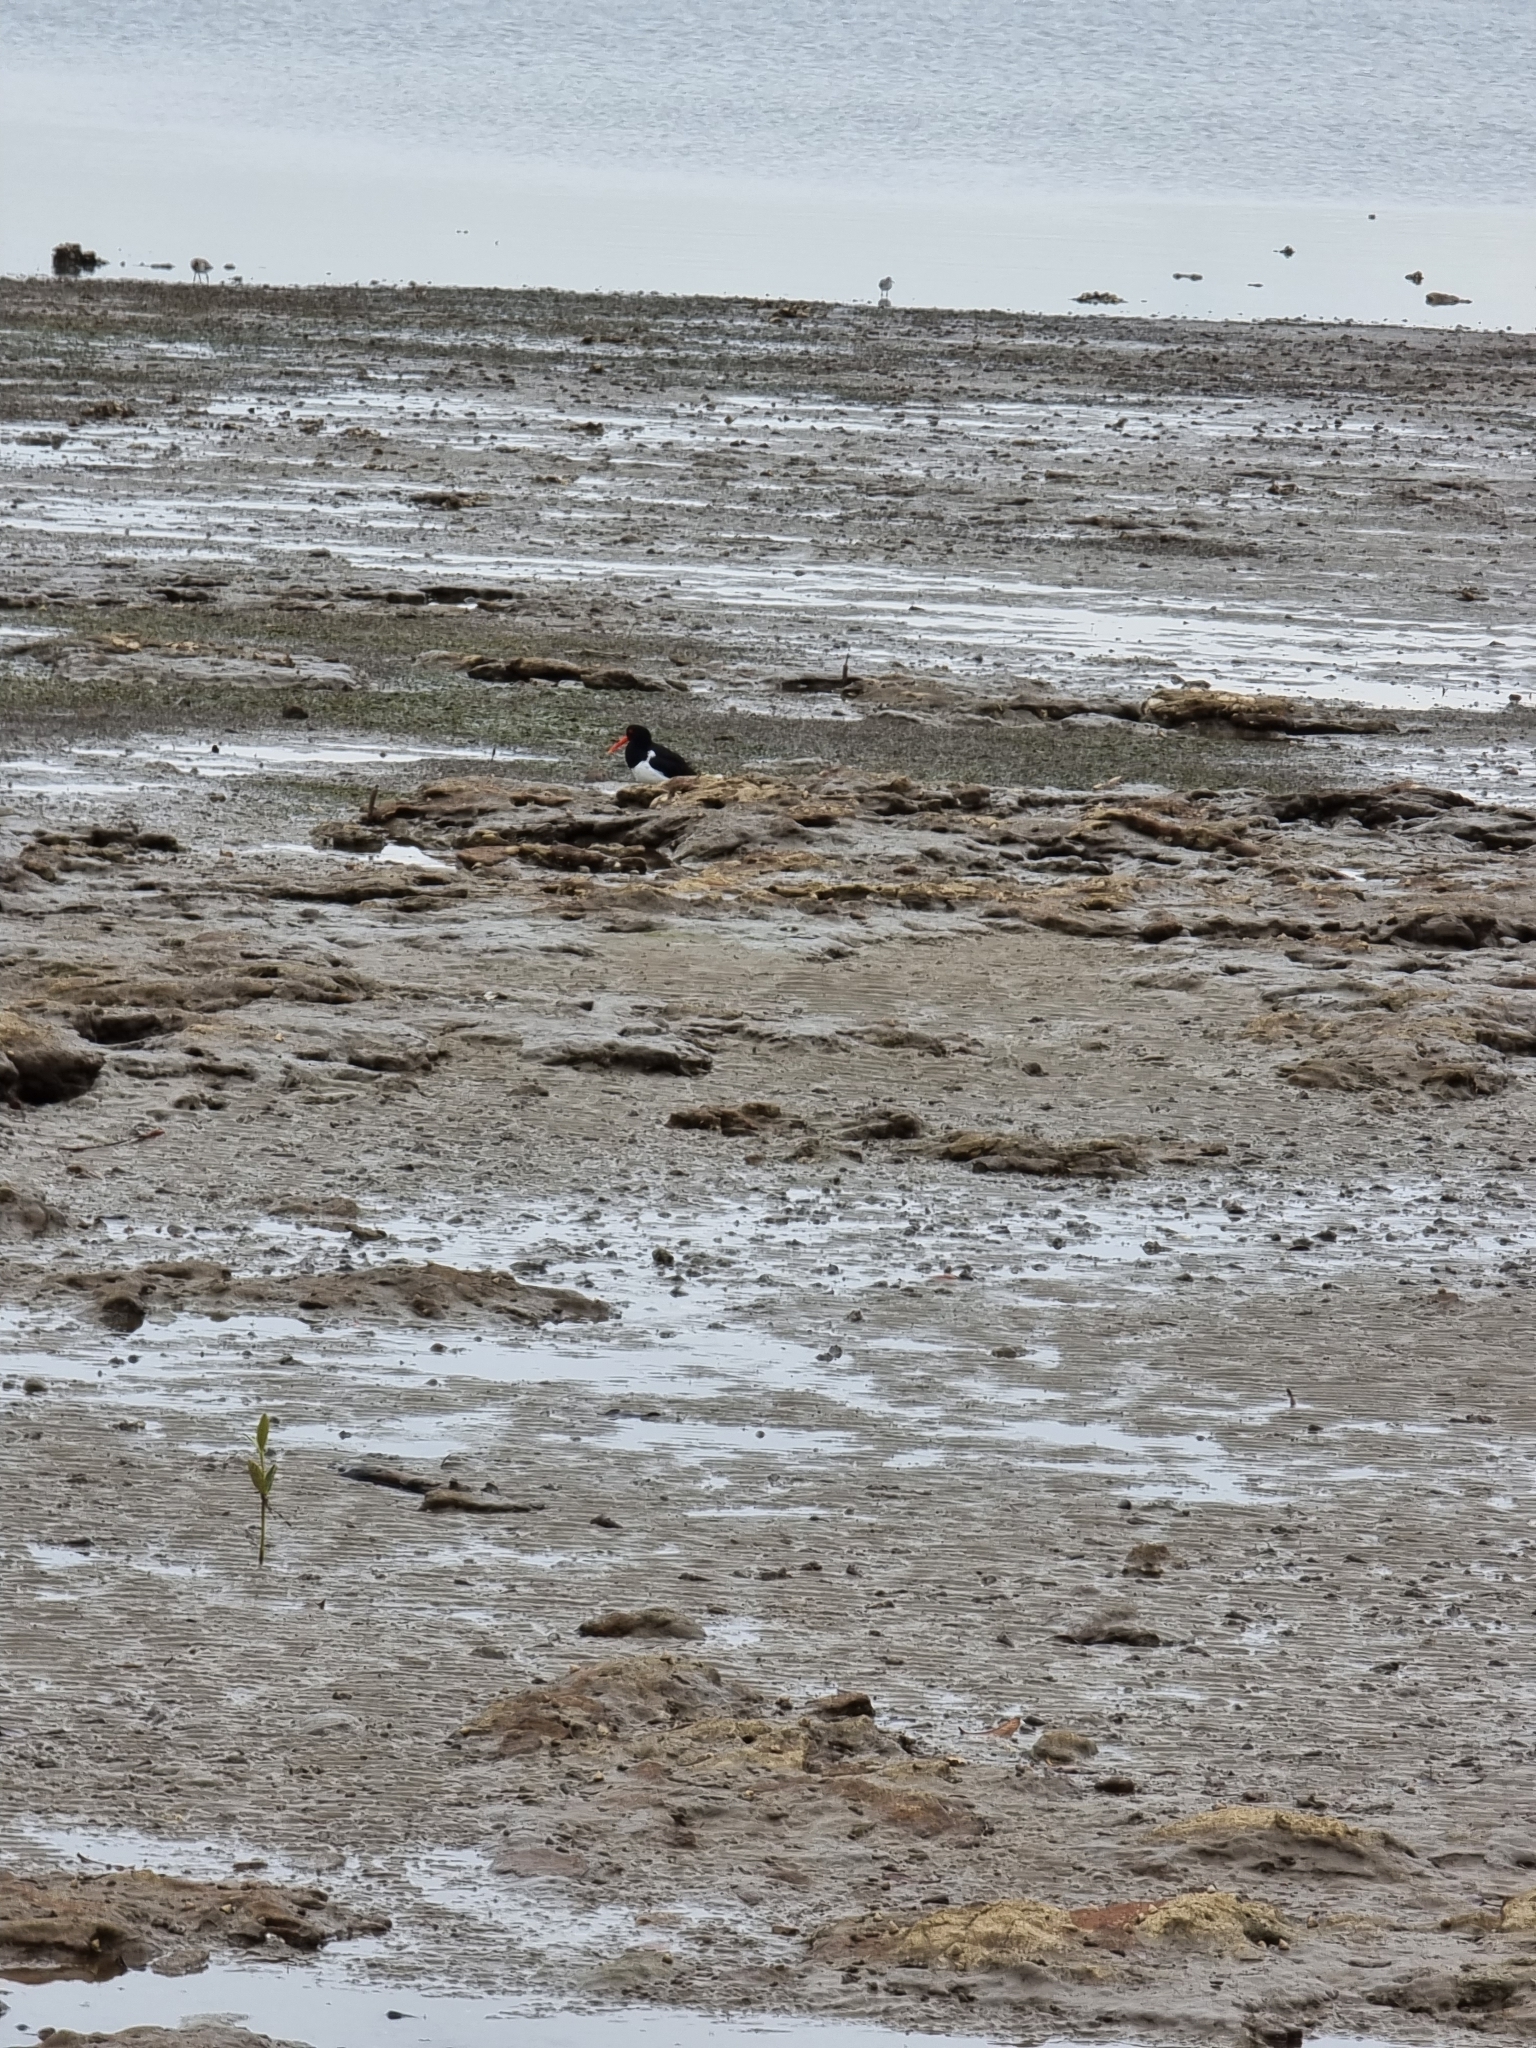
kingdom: Animalia
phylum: Chordata
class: Aves
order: Charadriiformes
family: Haematopodidae
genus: Haematopus
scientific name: Haematopus longirostris
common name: Pied oystercatcher
